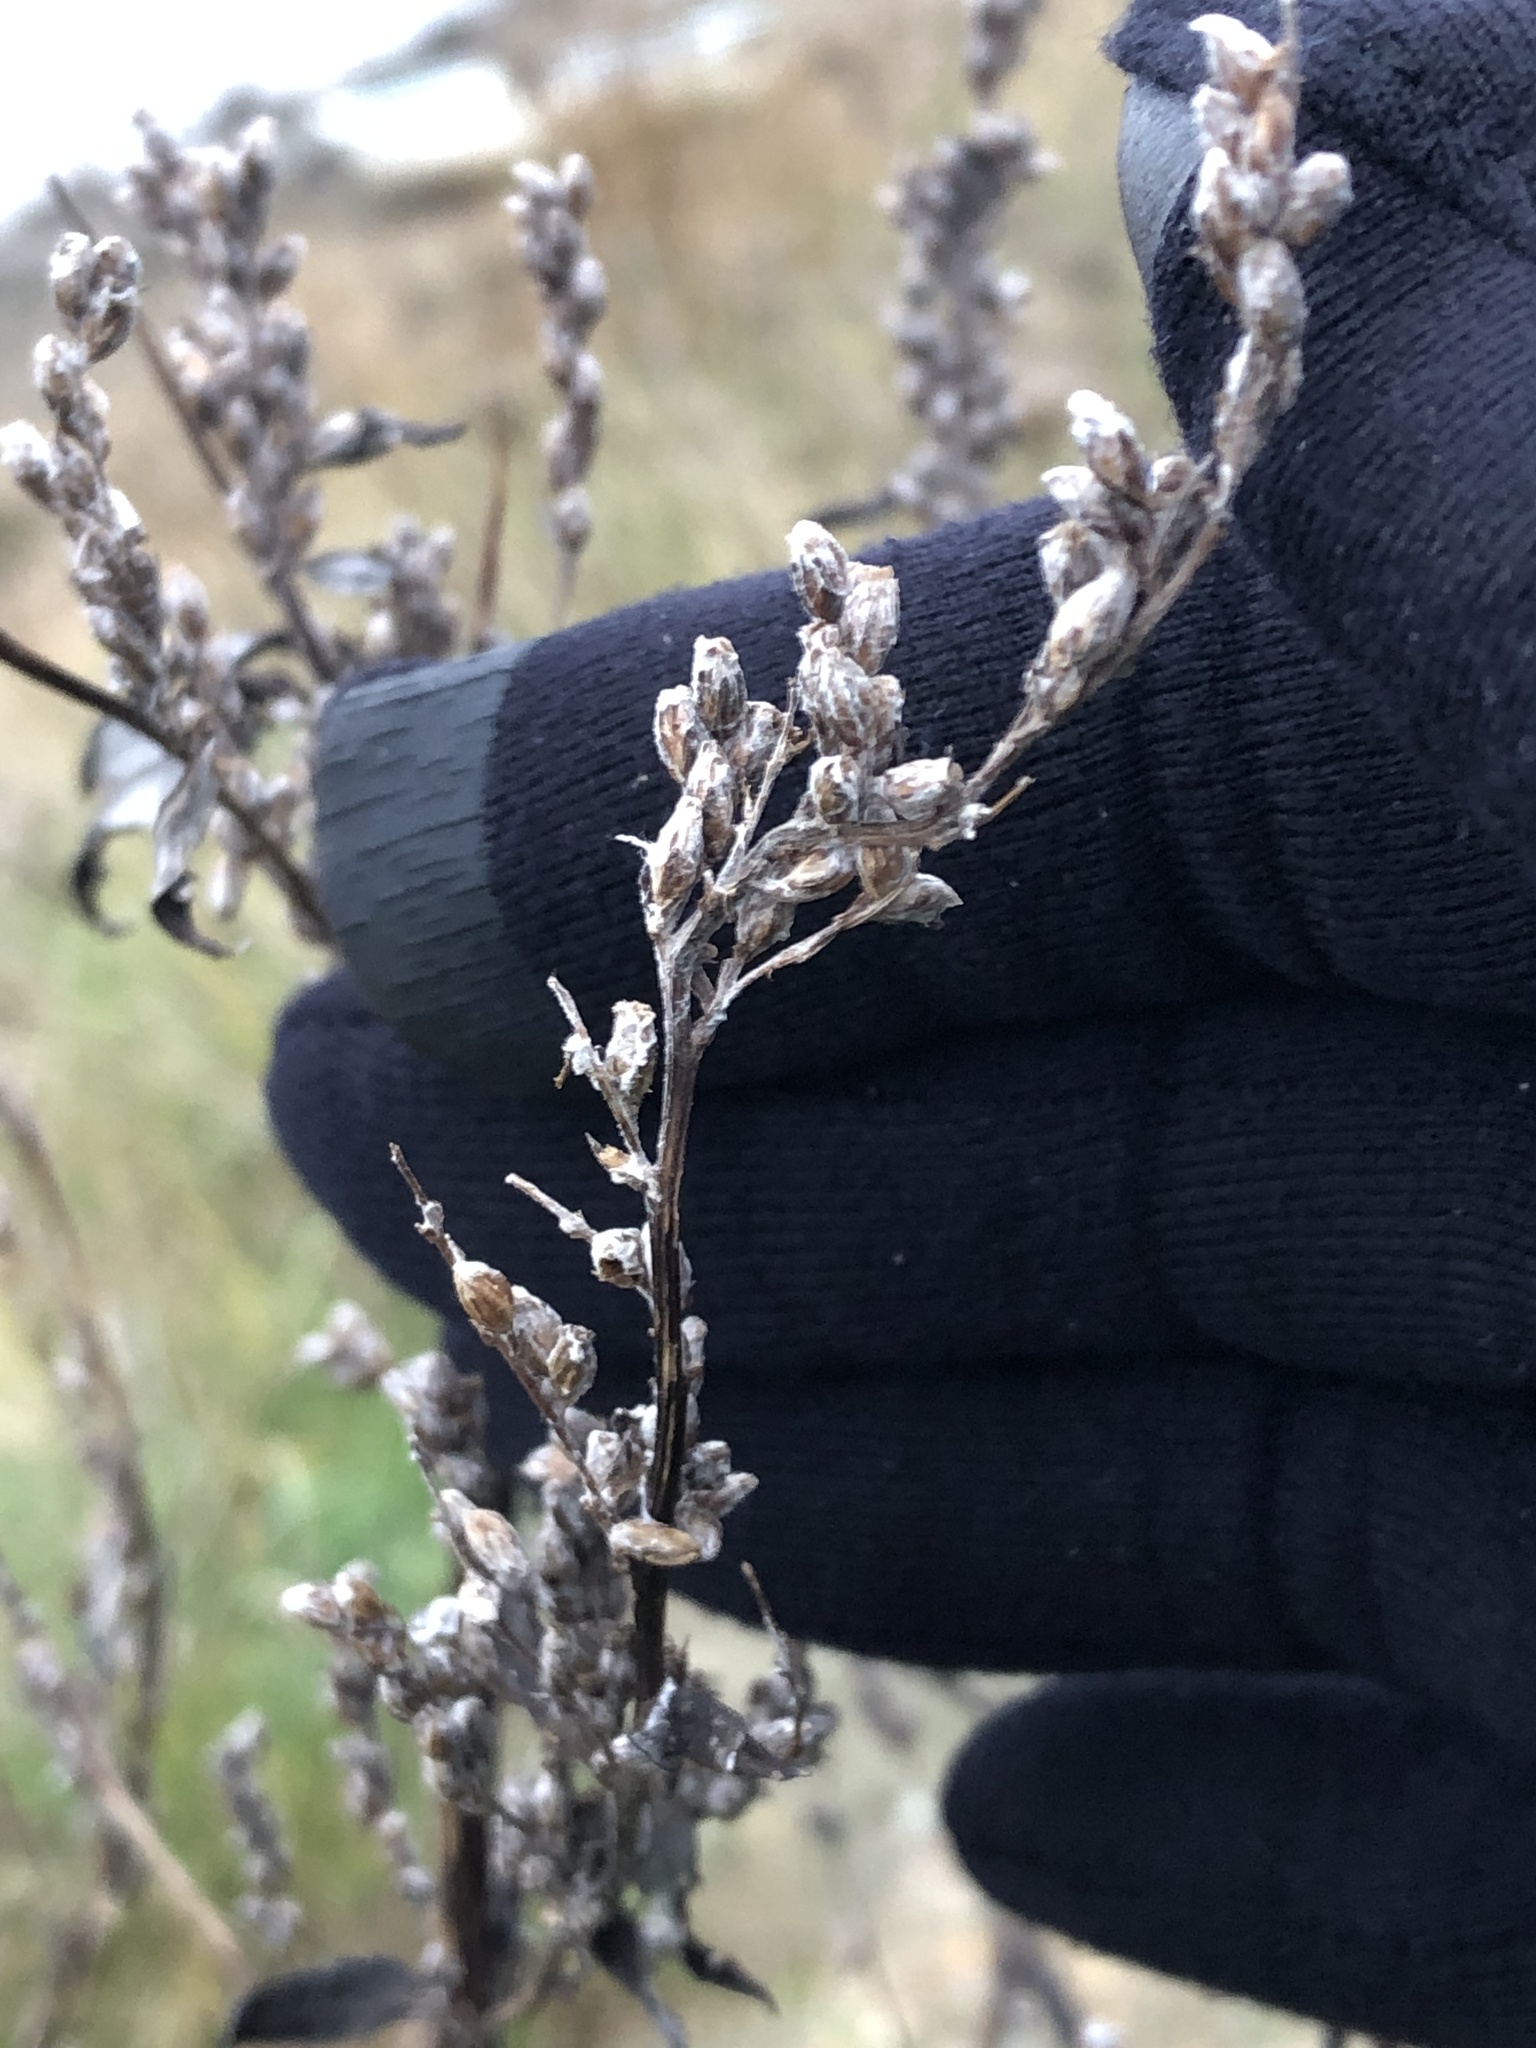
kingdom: Plantae
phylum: Tracheophyta
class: Magnoliopsida
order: Asterales
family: Asteraceae
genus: Artemisia
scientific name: Artemisia vulgaris
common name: Mugwort
